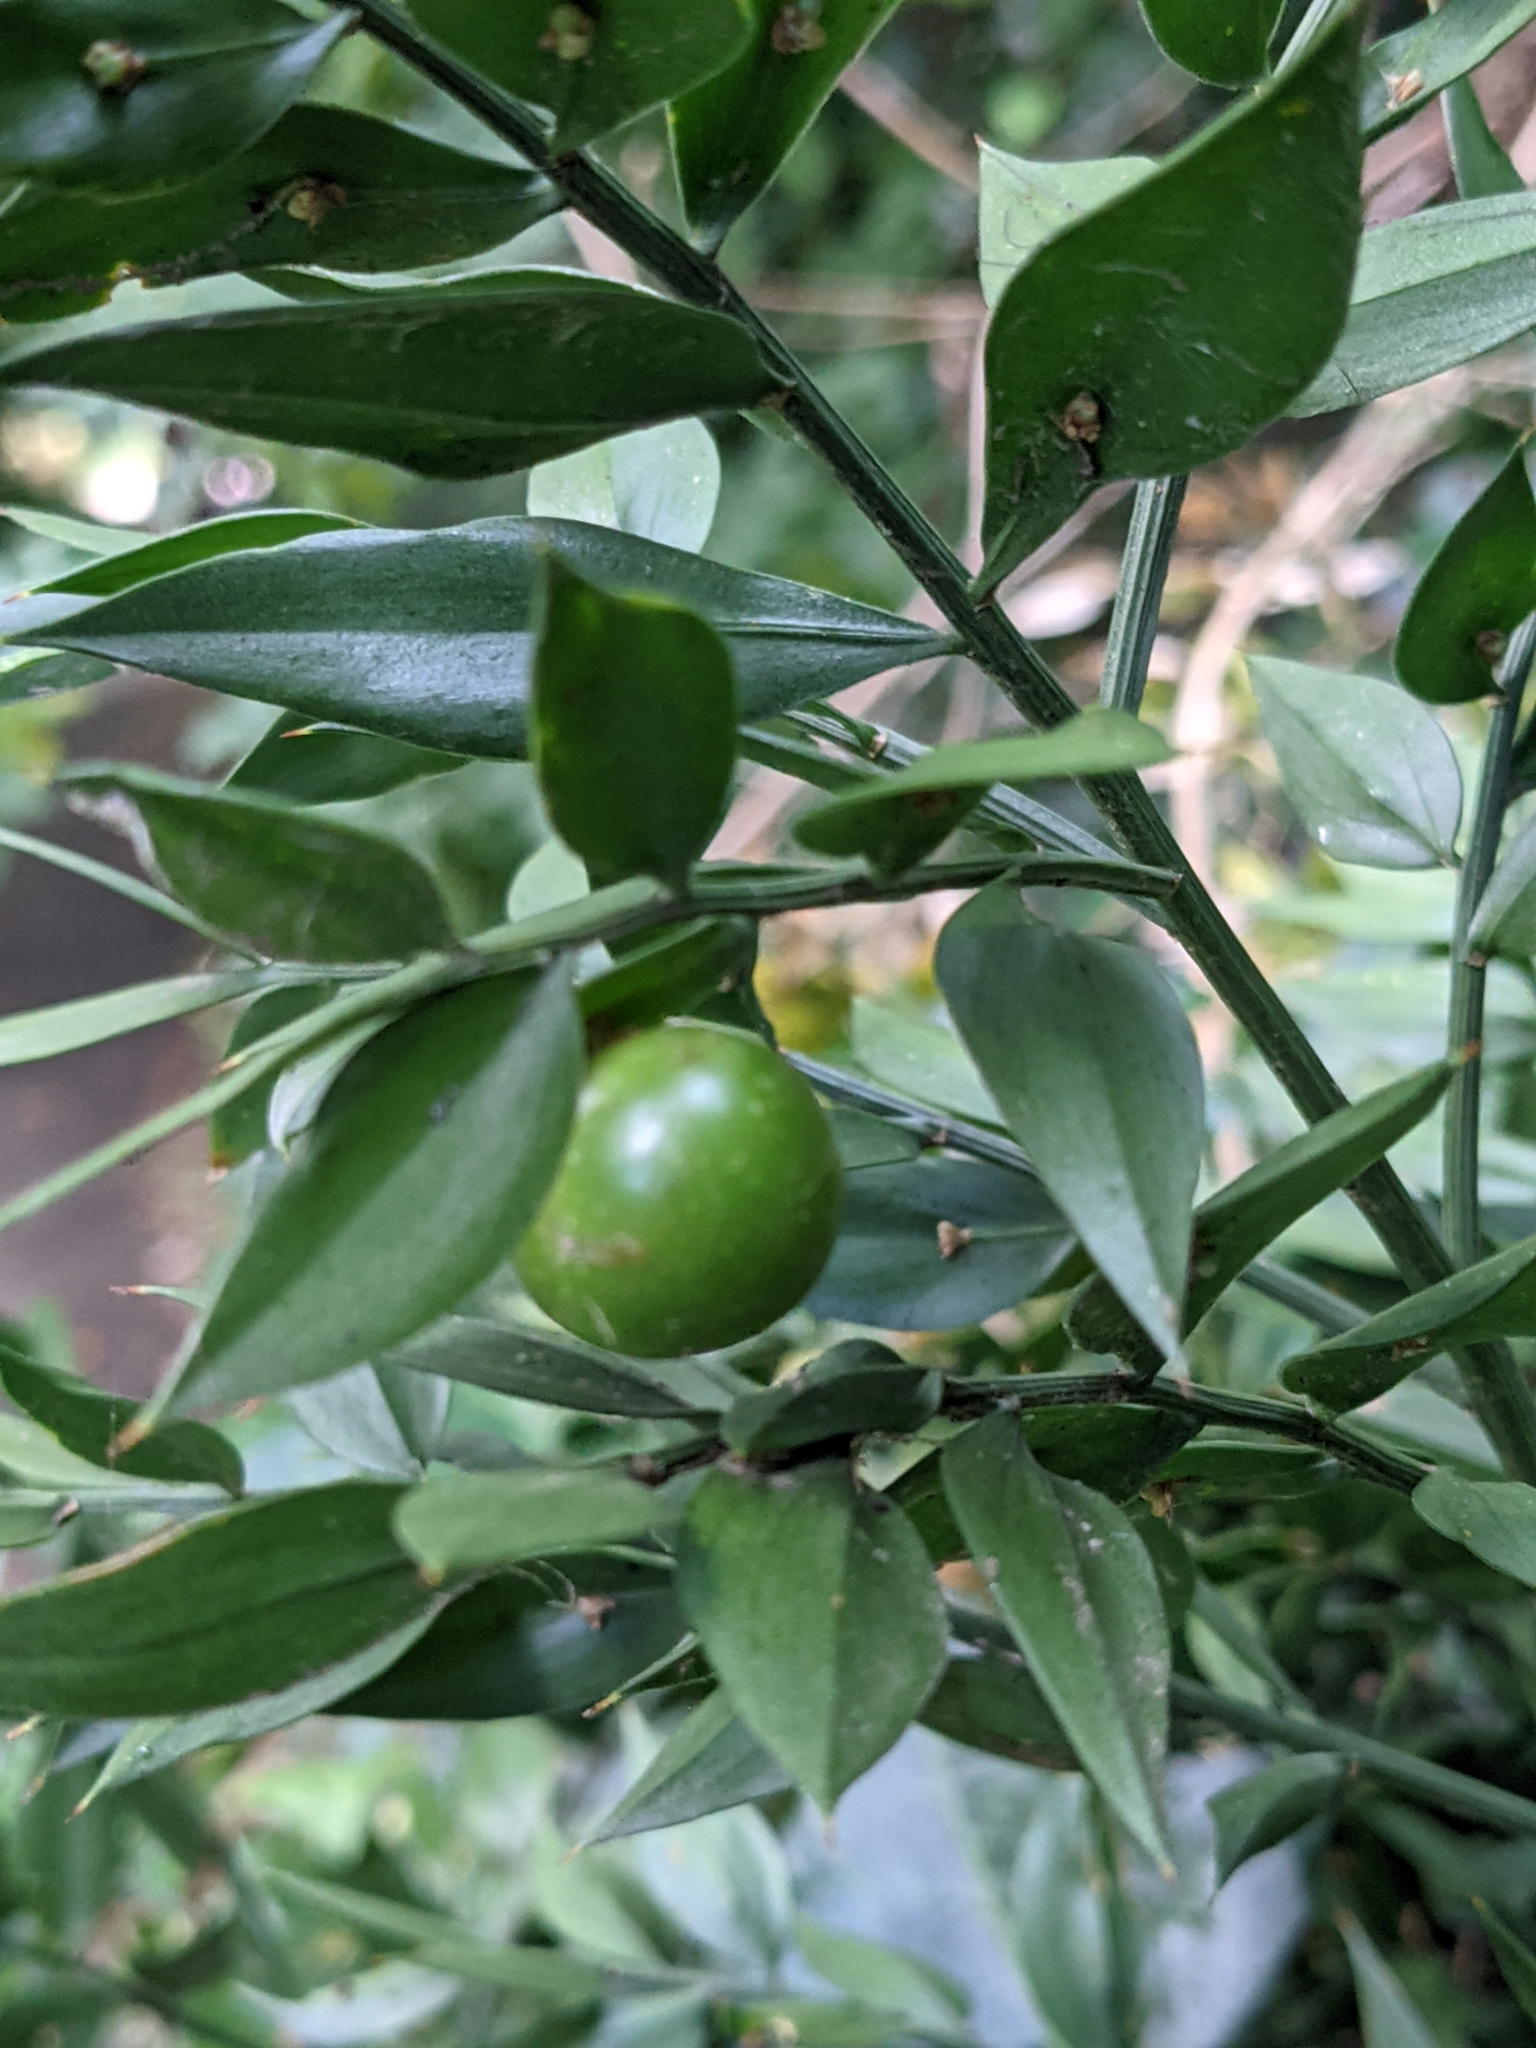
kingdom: Plantae
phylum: Tracheophyta
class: Liliopsida
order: Asparagales
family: Asparagaceae
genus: Ruscus
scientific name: Ruscus aculeatus
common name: Butcher's-broom
